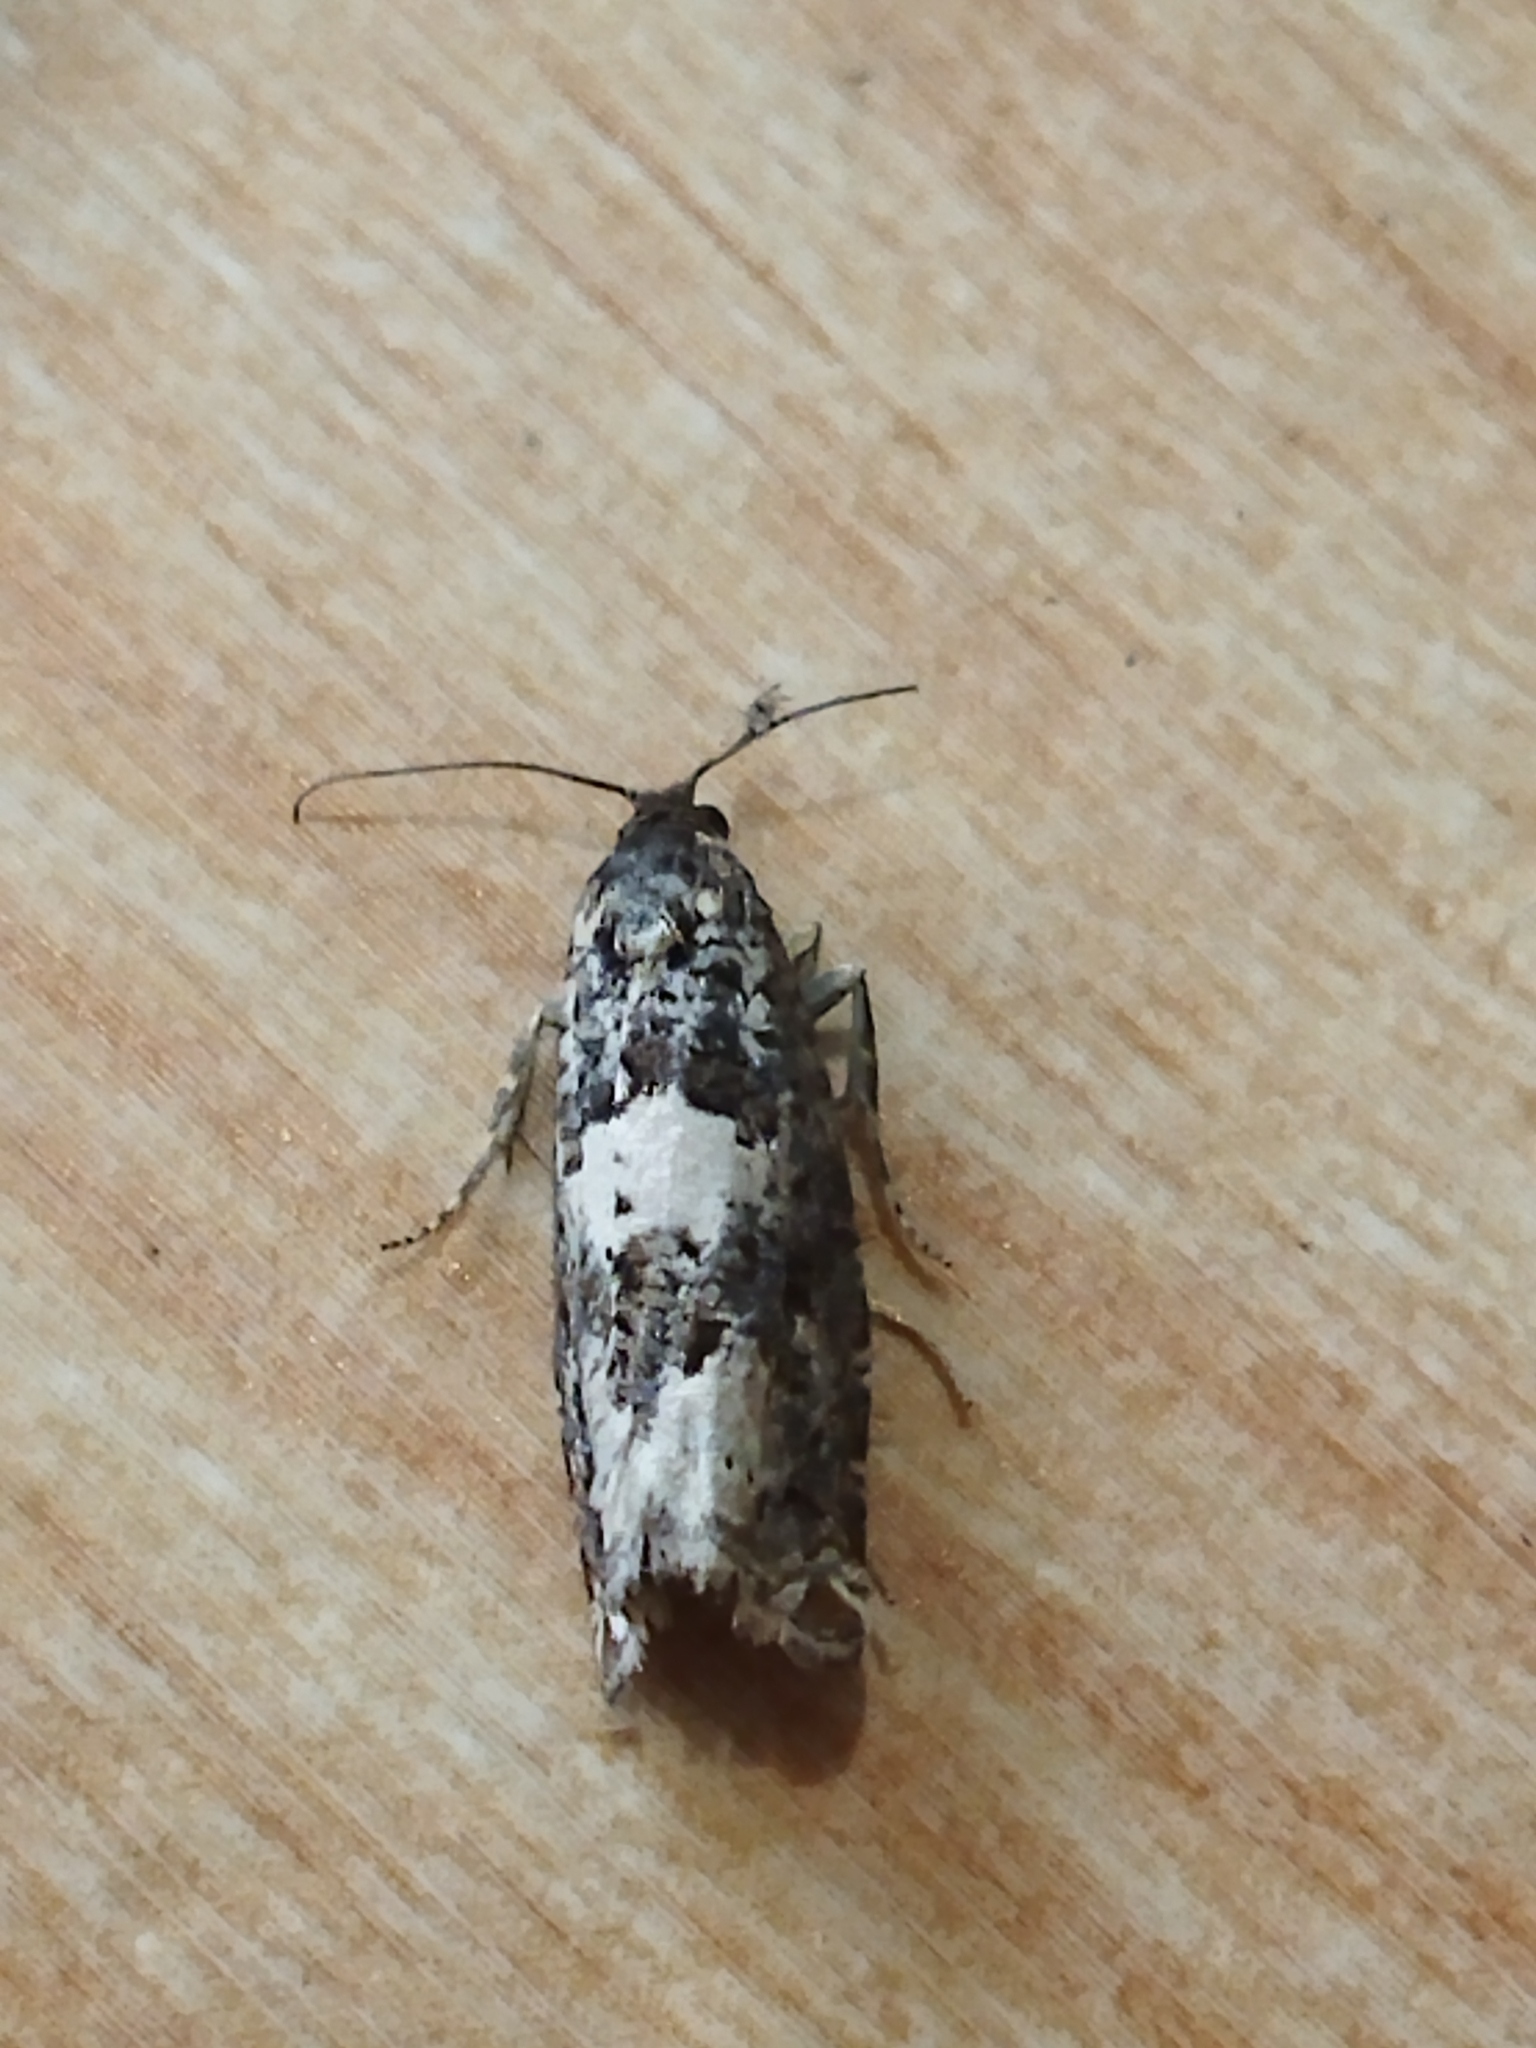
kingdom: Animalia
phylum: Arthropoda
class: Insecta
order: Lepidoptera
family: Tortricidae
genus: Epiblema
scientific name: Epiblema scutulana
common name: Thistle bell
